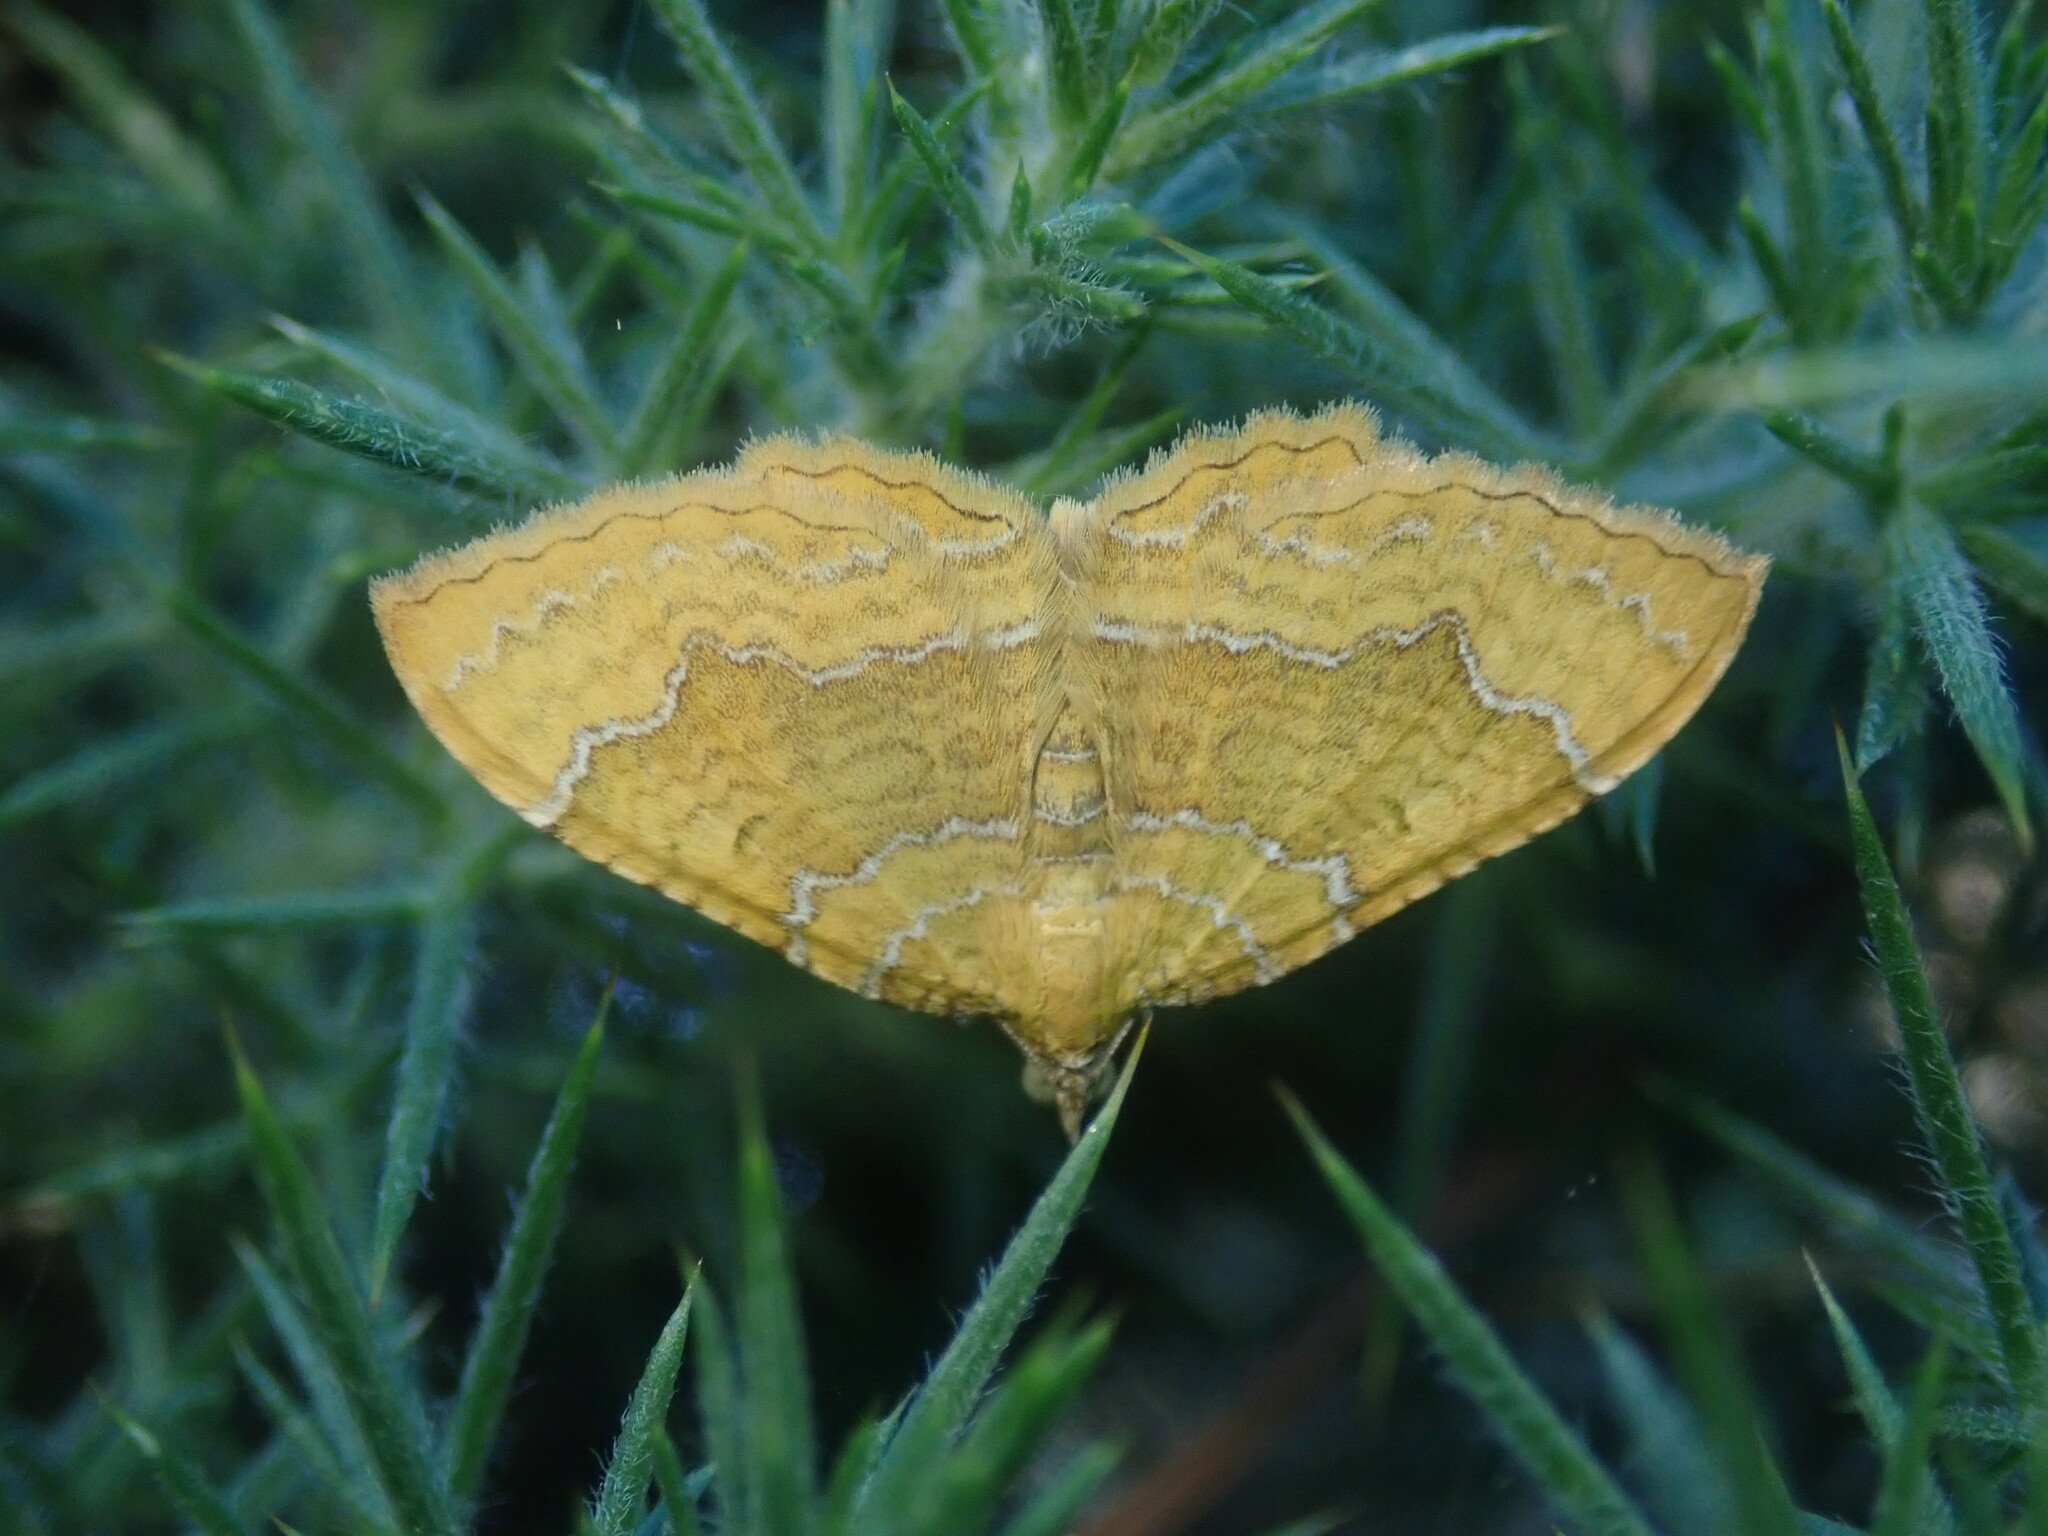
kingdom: Animalia
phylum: Arthropoda
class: Insecta
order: Lepidoptera
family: Geometridae
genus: Camptogramma
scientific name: Camptogramma bilineata
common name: Yellow shell
